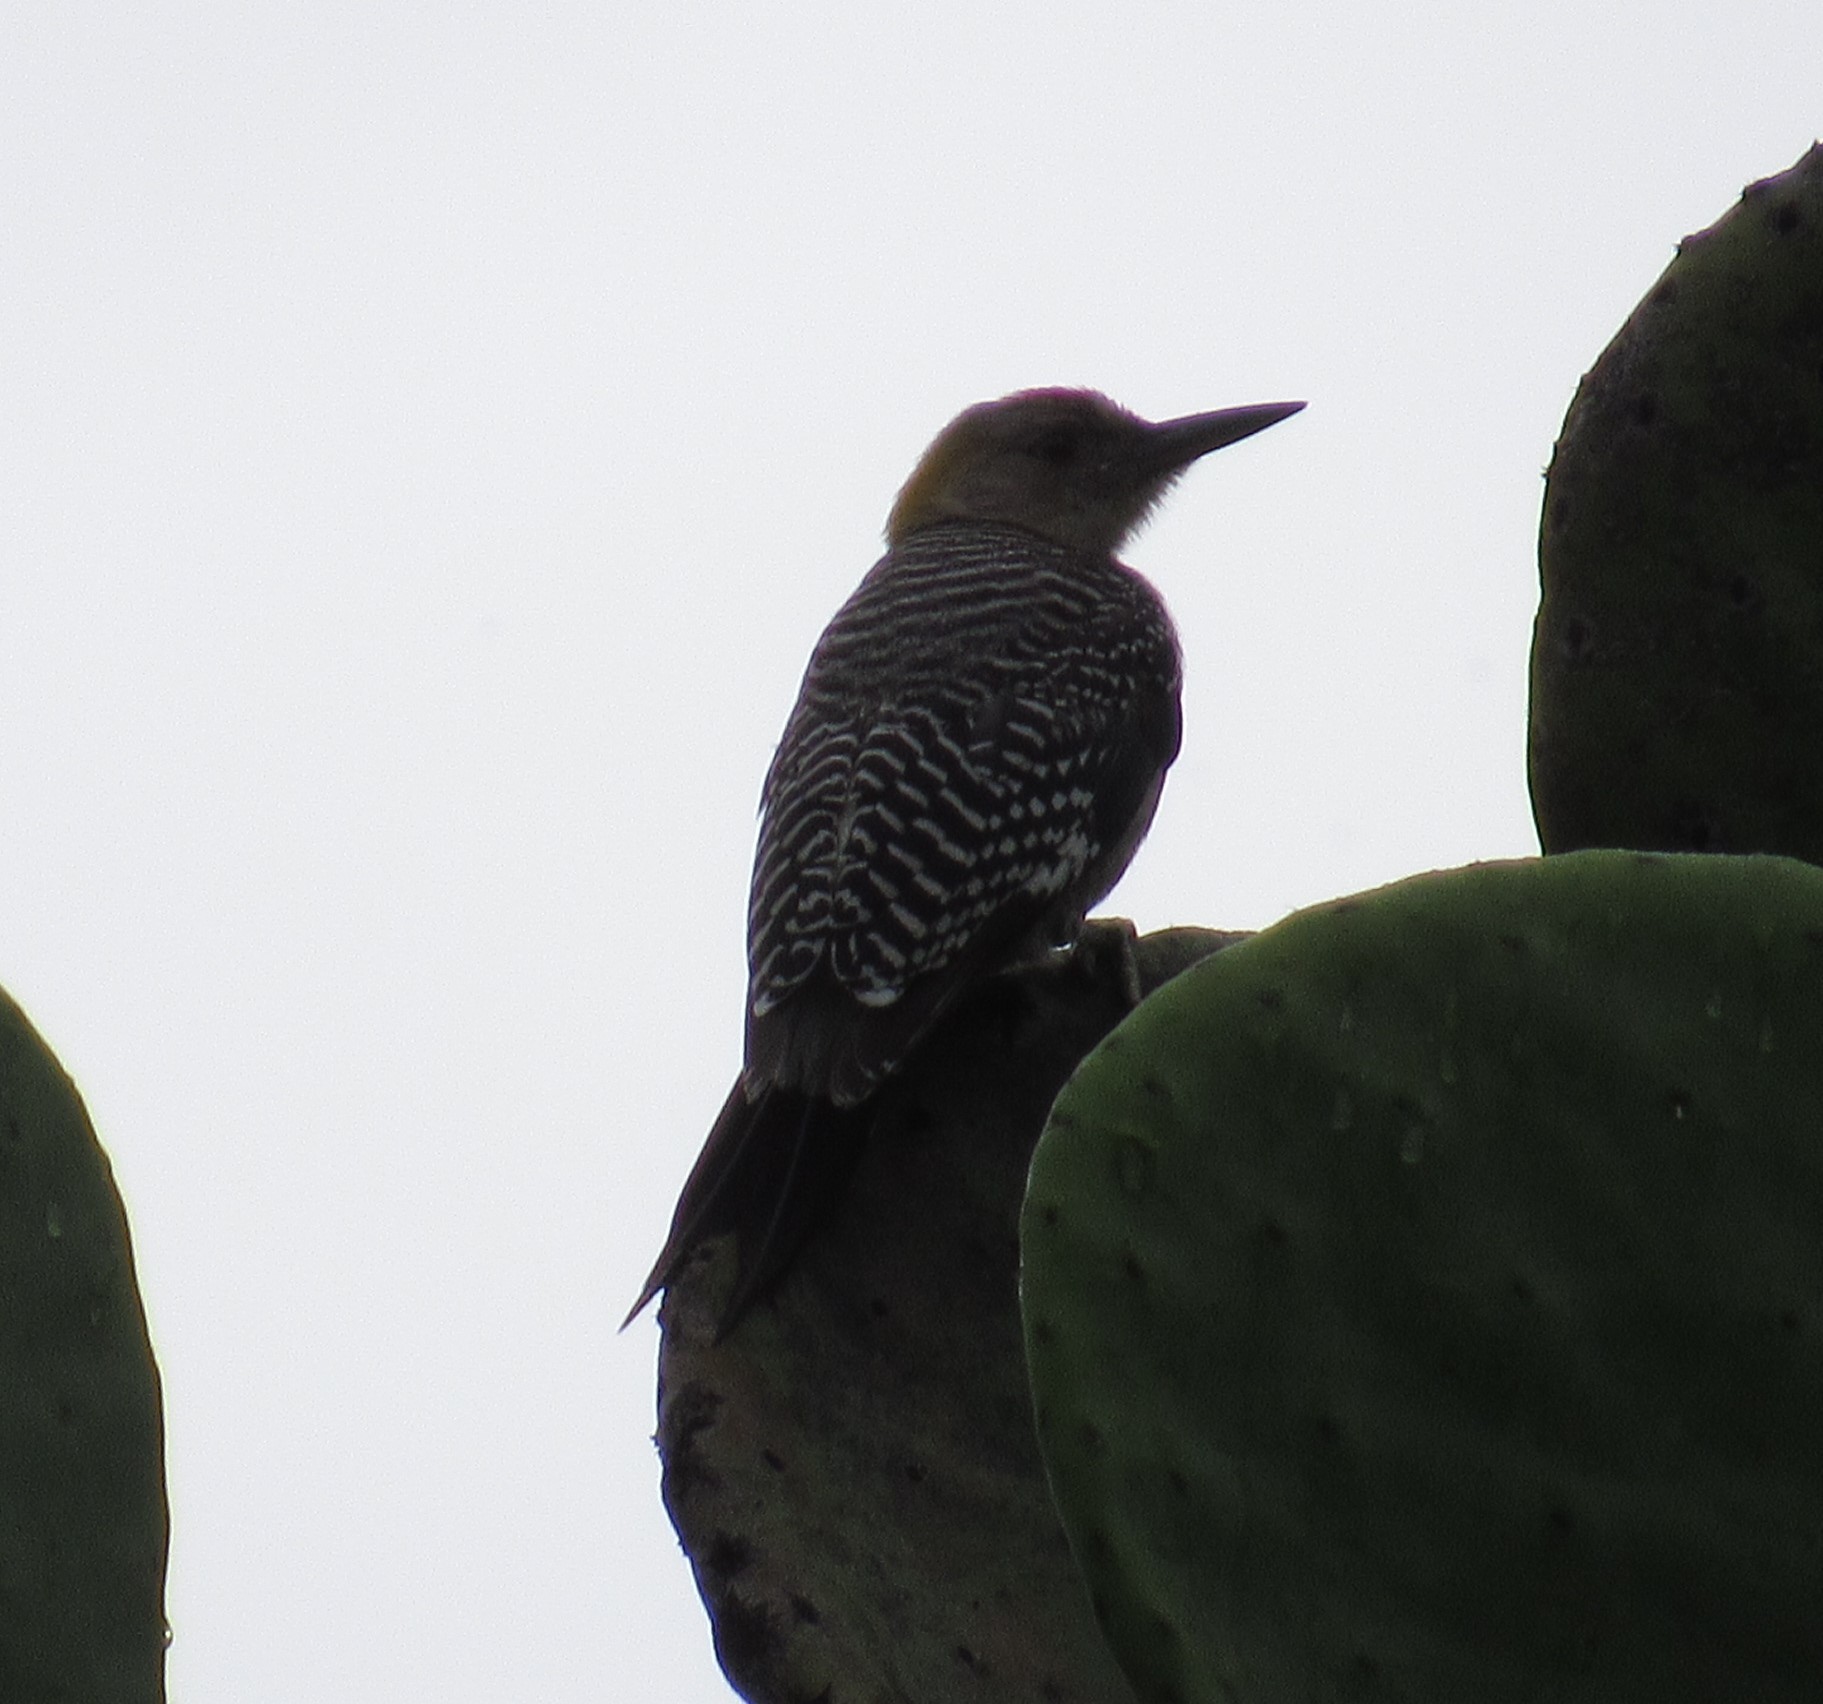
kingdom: Animalia
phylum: Chordata
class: Aves
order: Piciformes
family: Picidae
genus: Melanerpes
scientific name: Melanerpes aurifrons
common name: Golden-fronted woodpecker
